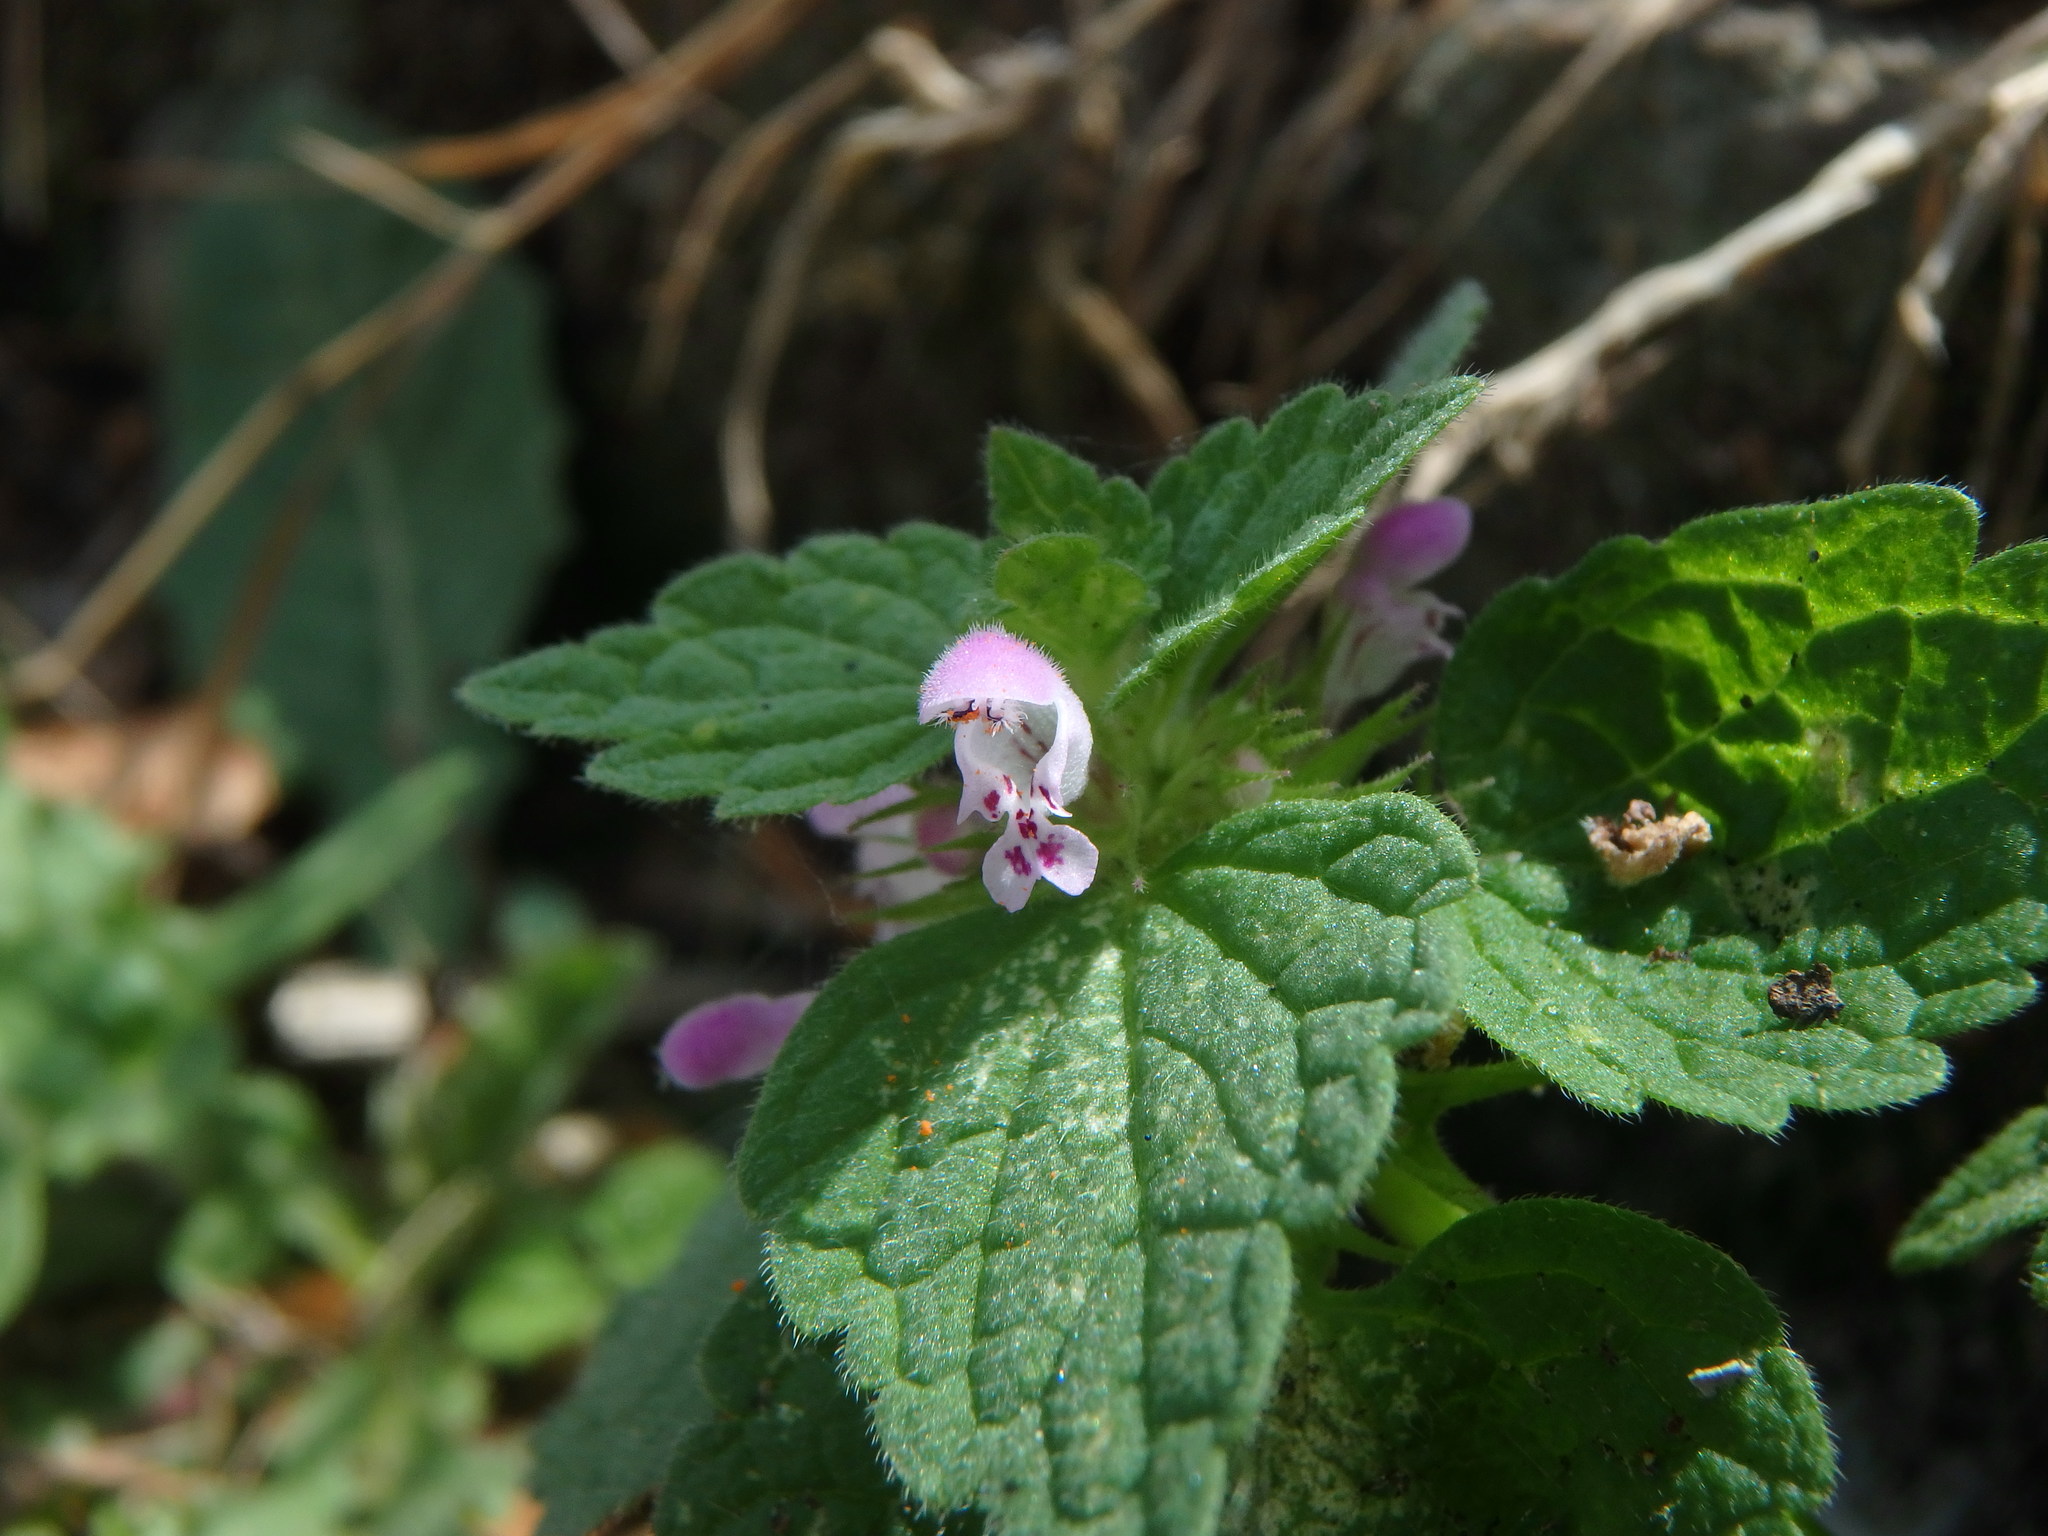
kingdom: Plantae
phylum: Tracheophyta
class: Magnoliopsida
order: Lamiales
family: Lamiaceae
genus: Lamium
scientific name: Lamium purpureum
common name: Red dead-nettle
